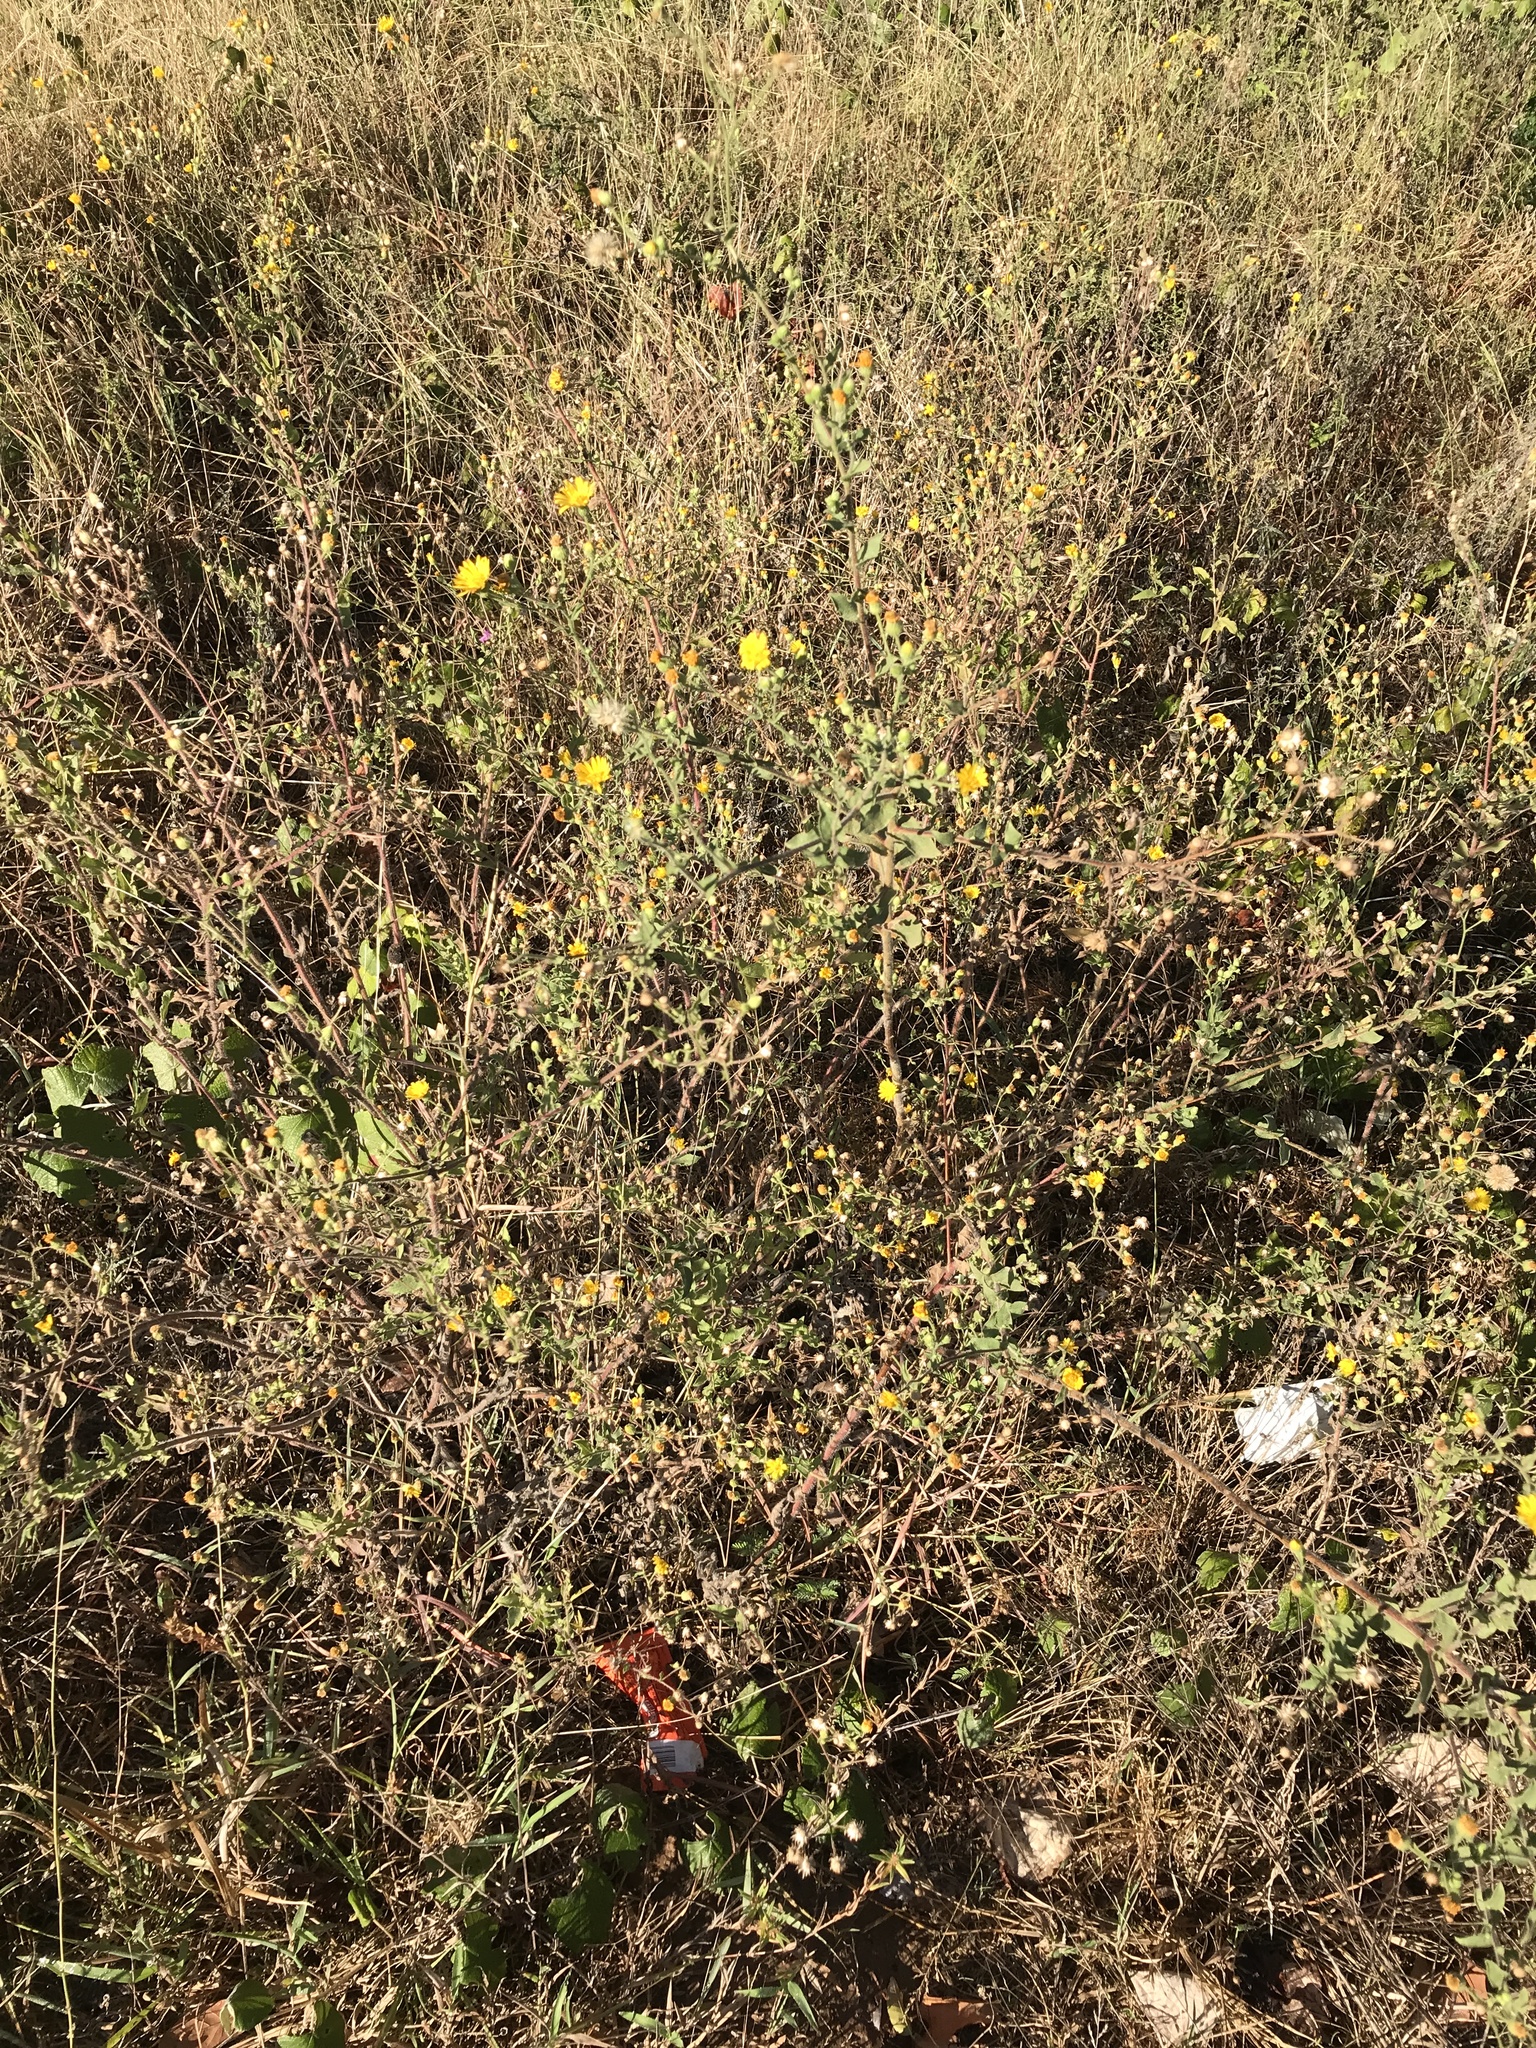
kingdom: Plantae
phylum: Tracheophyta
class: Magnoliopsida
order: Asterales
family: Asteraceae
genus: Heterotheca
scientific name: Heterotheca subaxillaris
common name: Camphorweed
